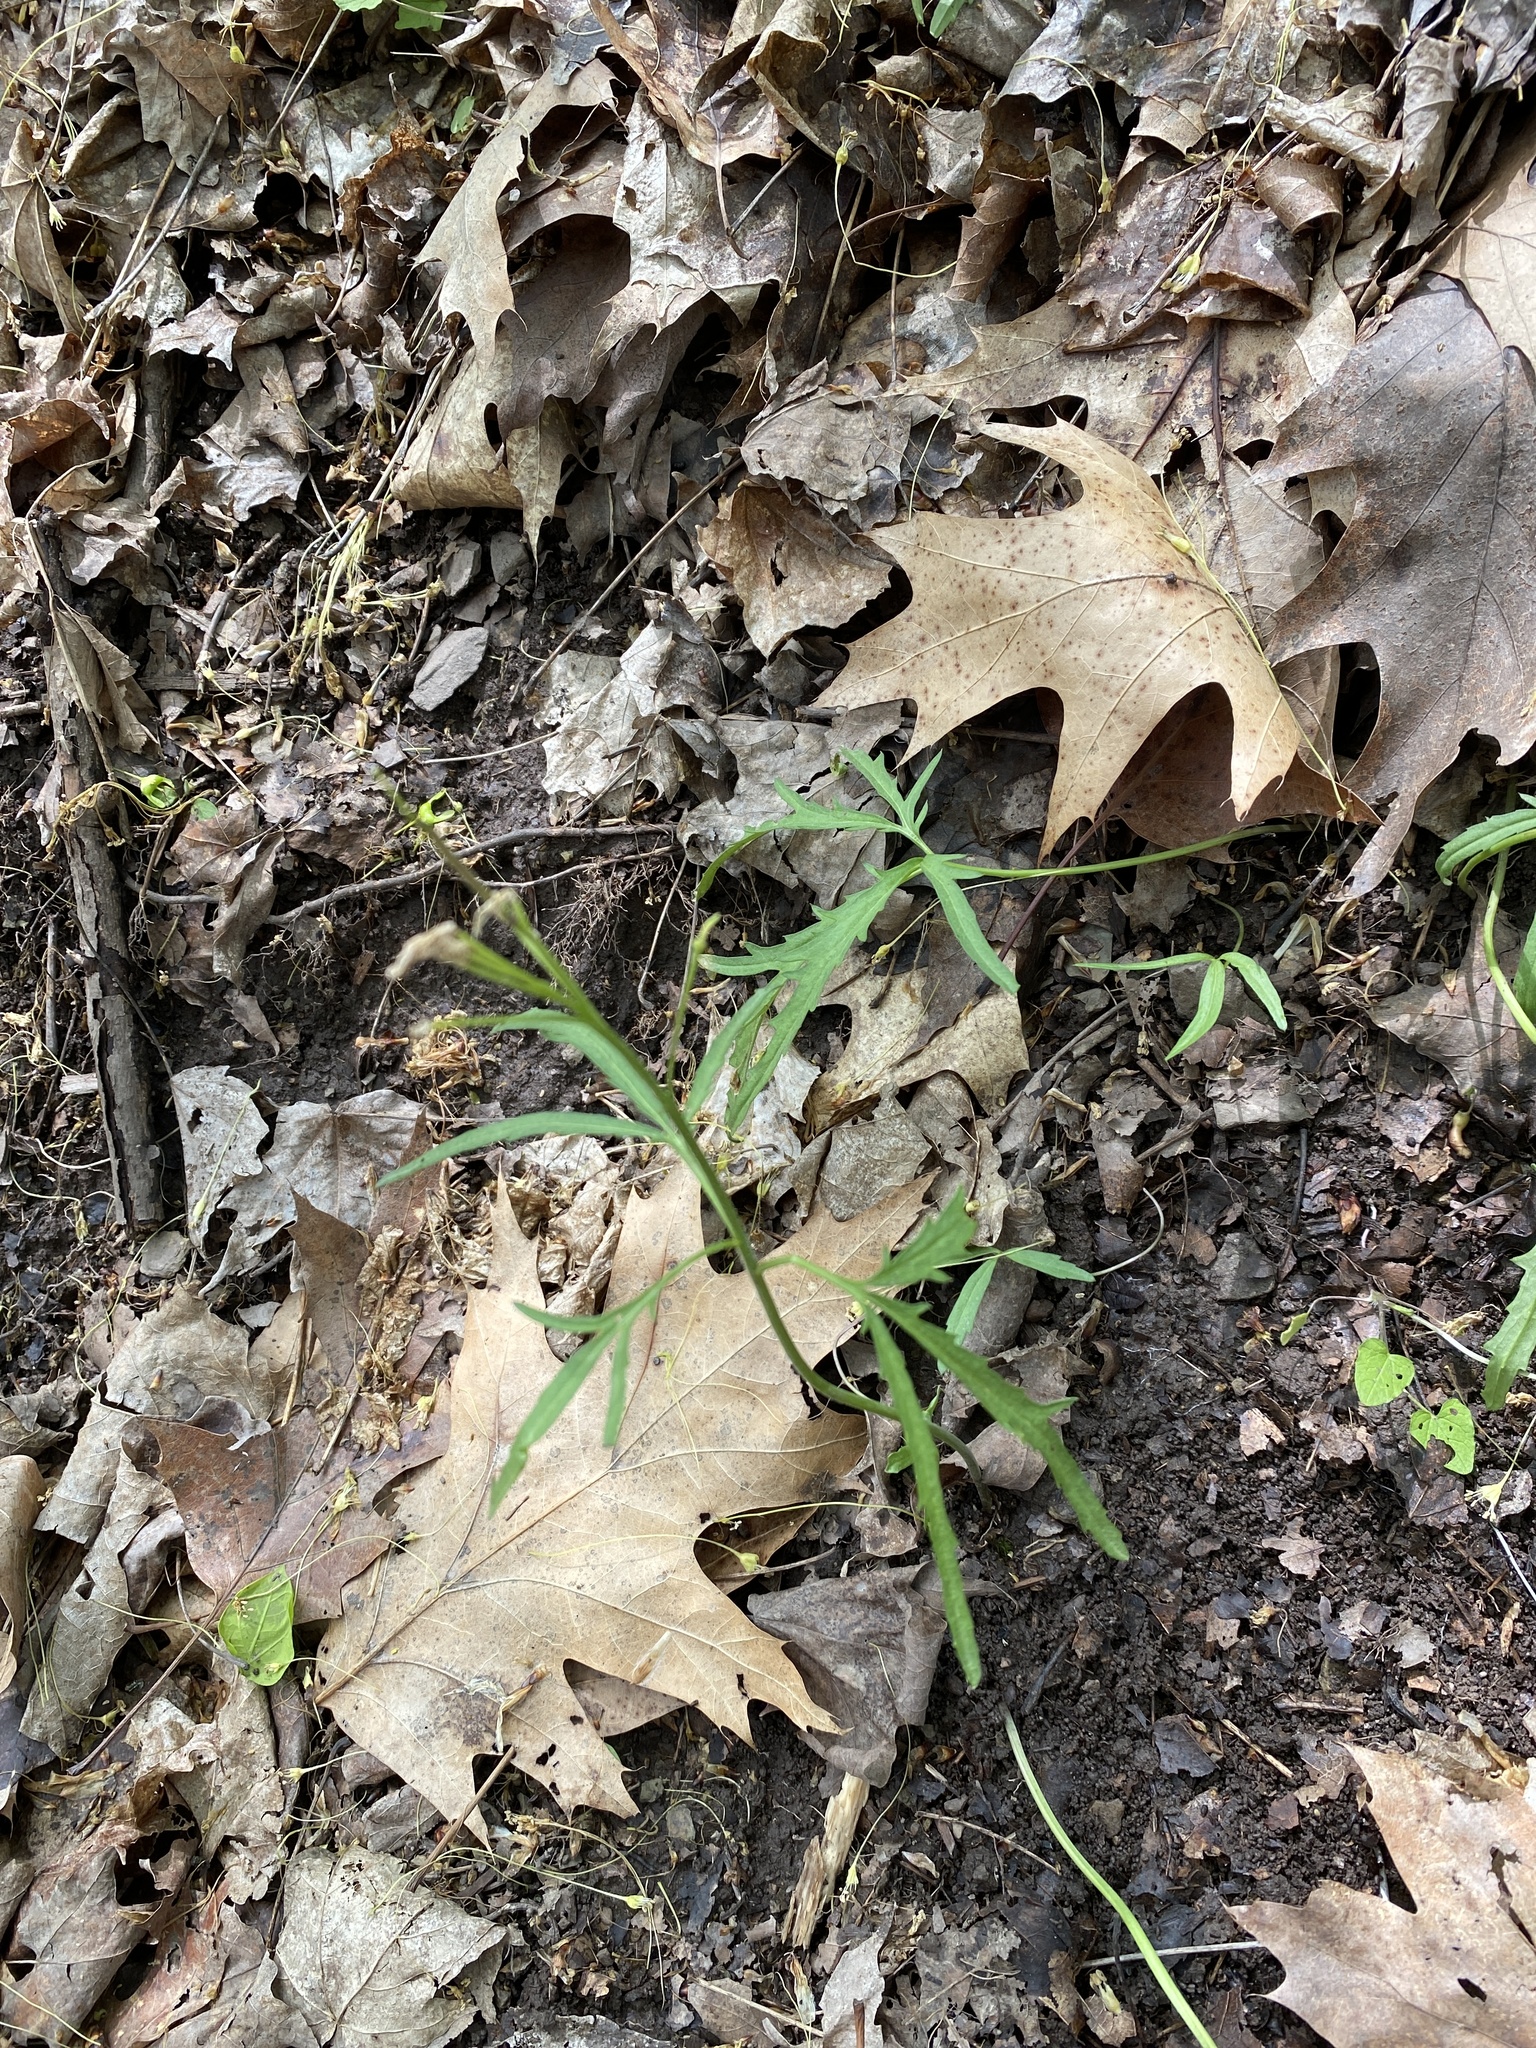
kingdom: Plantae
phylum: Tracheophyta
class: Magnoliopsida
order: Brassicales
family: Brassicaceae
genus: Cardamine
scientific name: Cardamine concatenata
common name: Cut-leaf toothcup
